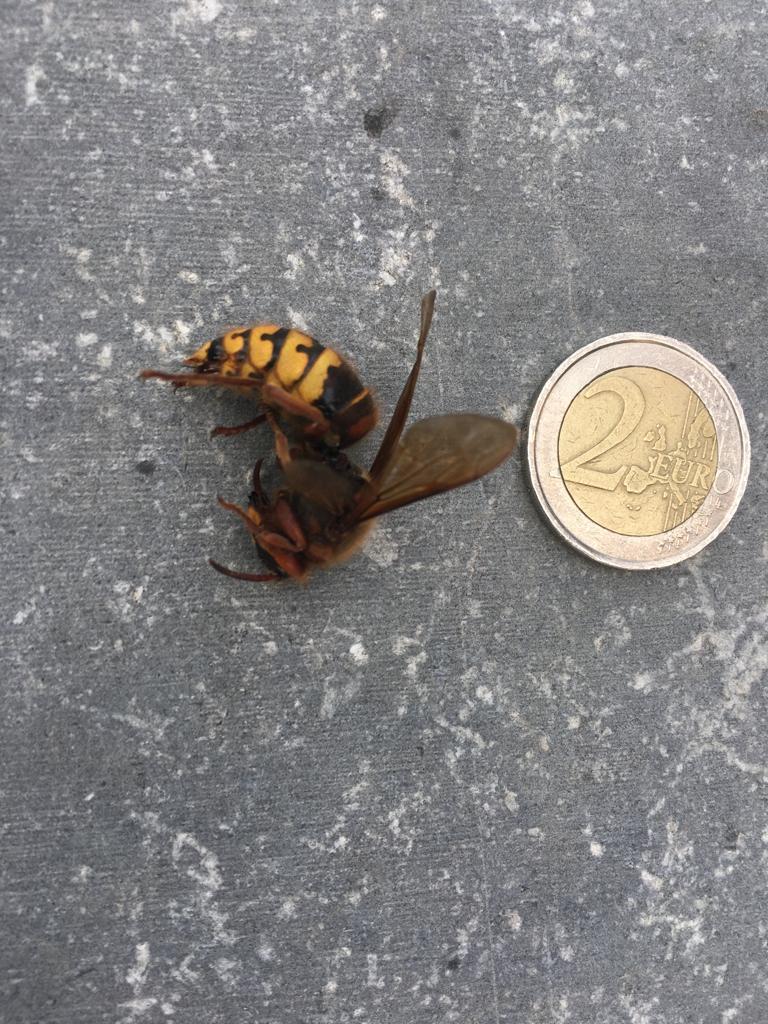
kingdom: Animalia
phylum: Arthropoda
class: Insecta
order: Hymenoptera
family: Vespidae
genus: Vespa
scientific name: Vespa crabro
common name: Hornet
